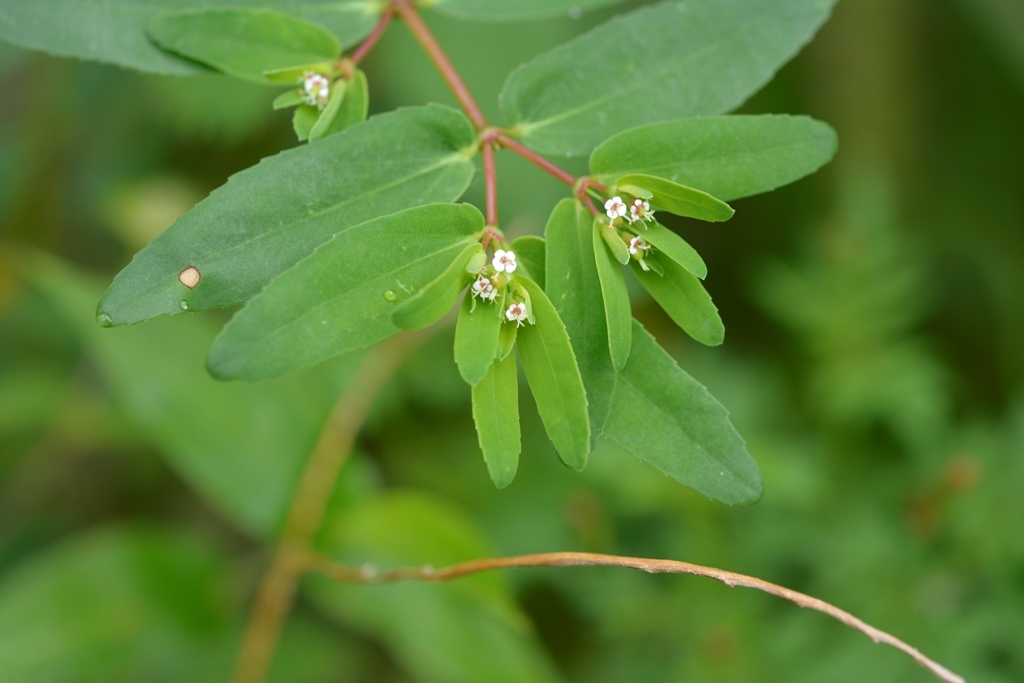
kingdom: Plantae
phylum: Tracheophyta
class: Magnoliopsida
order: Malpighiales
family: Euphorbiaceae
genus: Euphorbia
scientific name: Euphorbia nutans
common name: Eyebane
